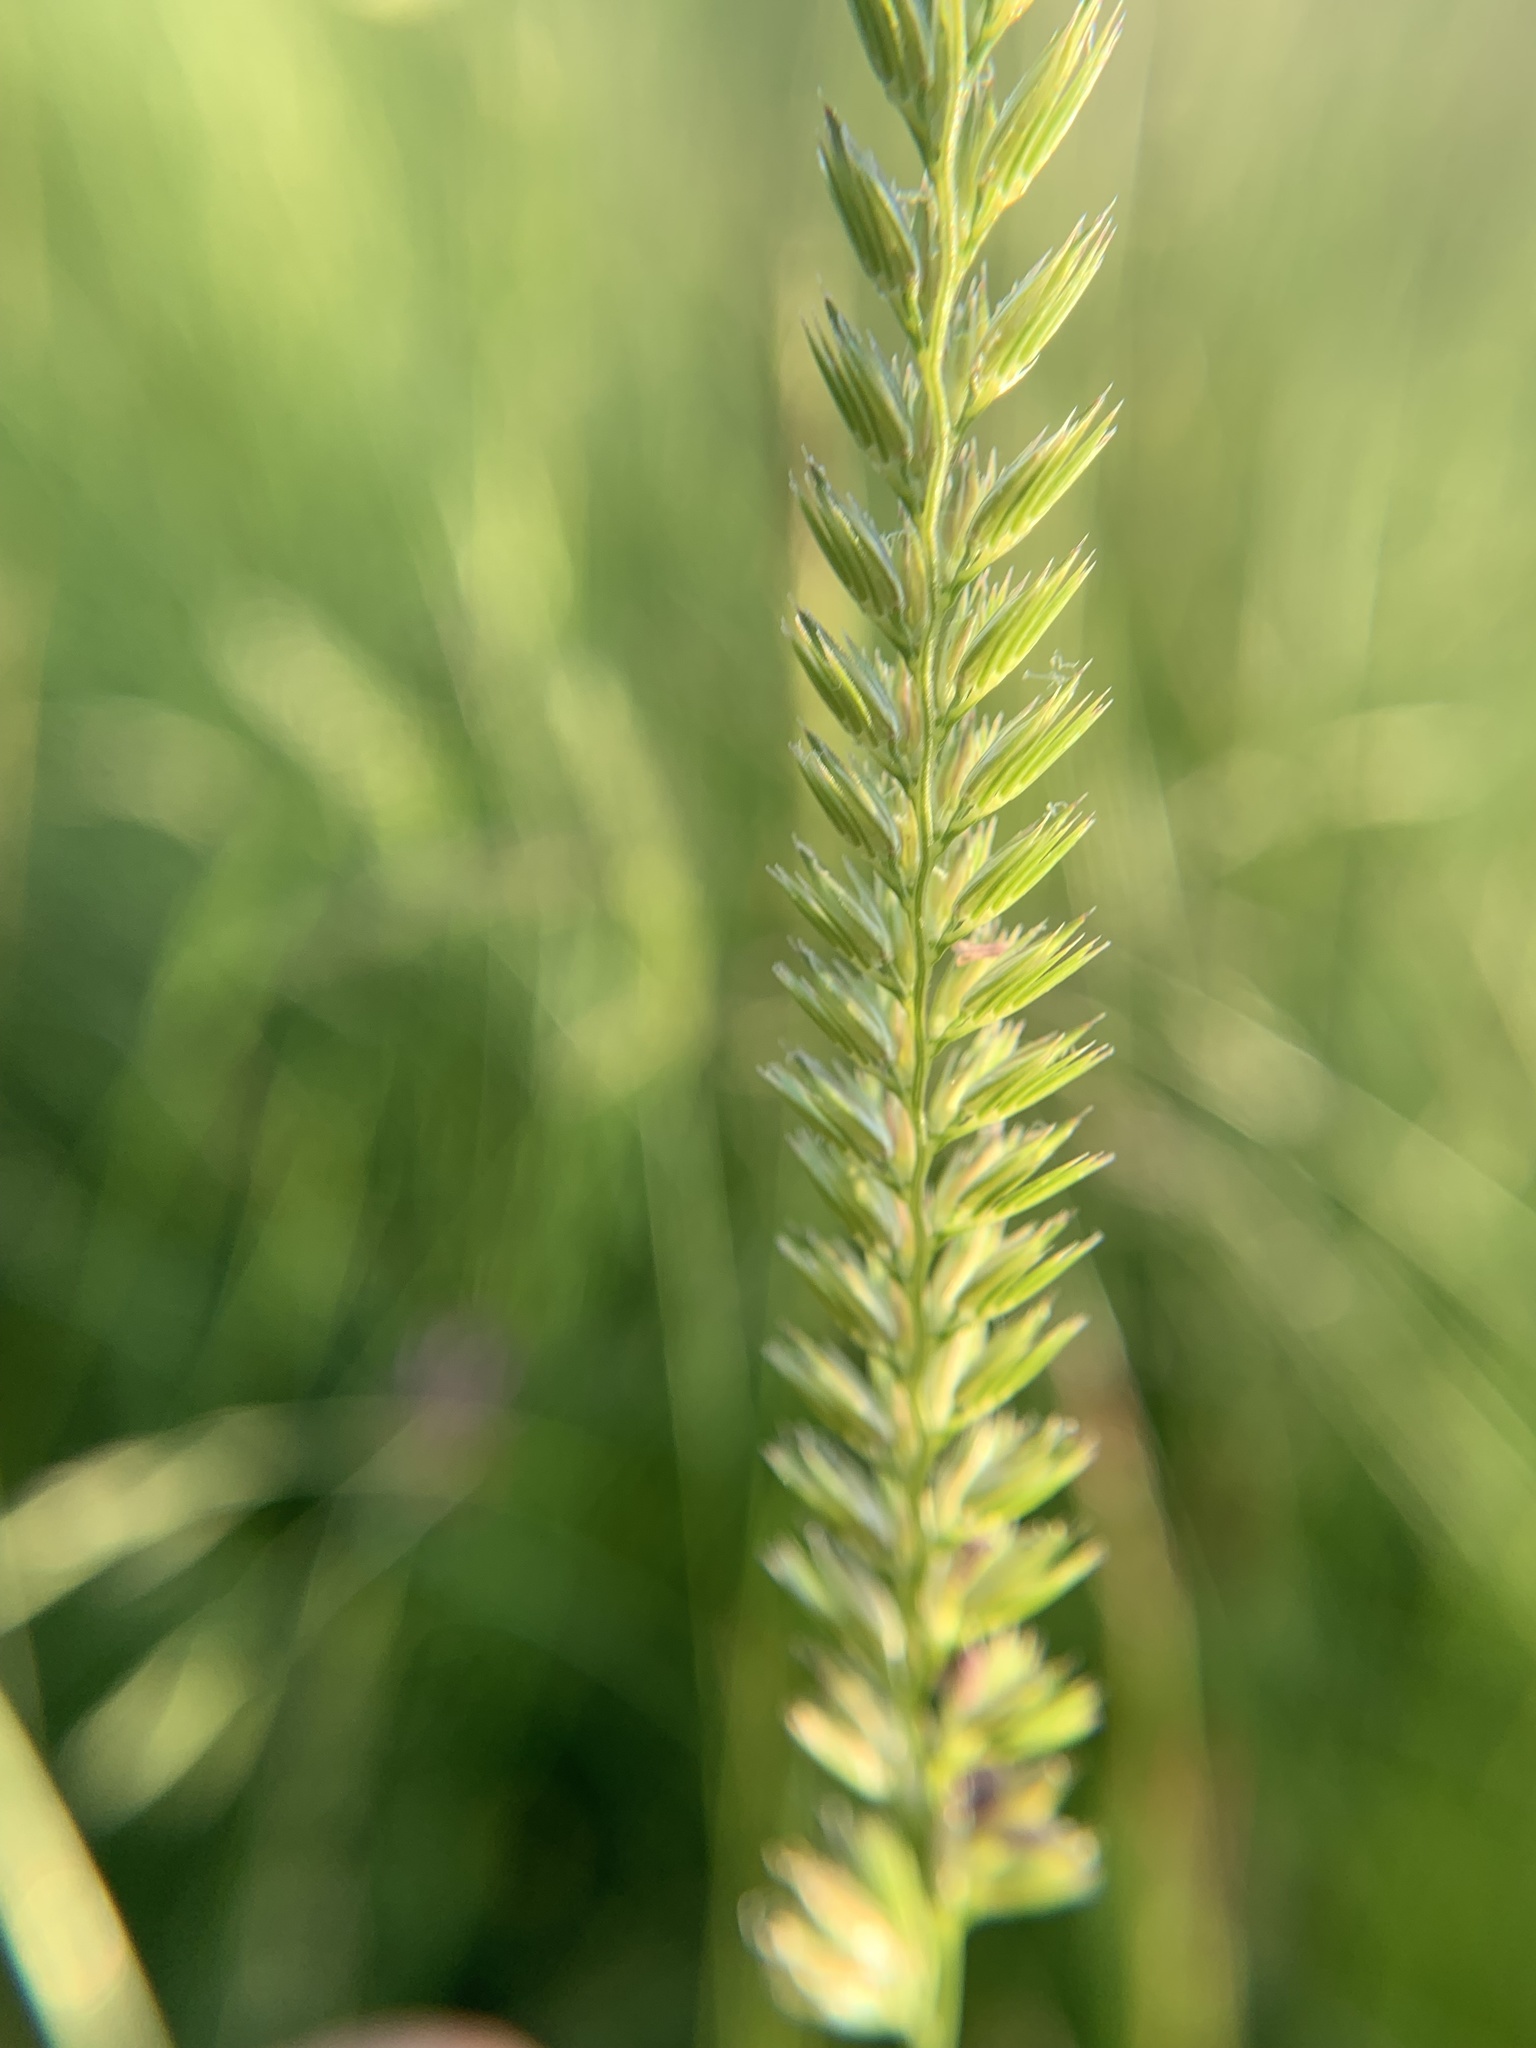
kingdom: Plantae
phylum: Tracheophyta
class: Liliopsida
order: Poales
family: Poaceae
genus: Cynosurus
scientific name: Cynosurus cristatus
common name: Crested dog's-tail
